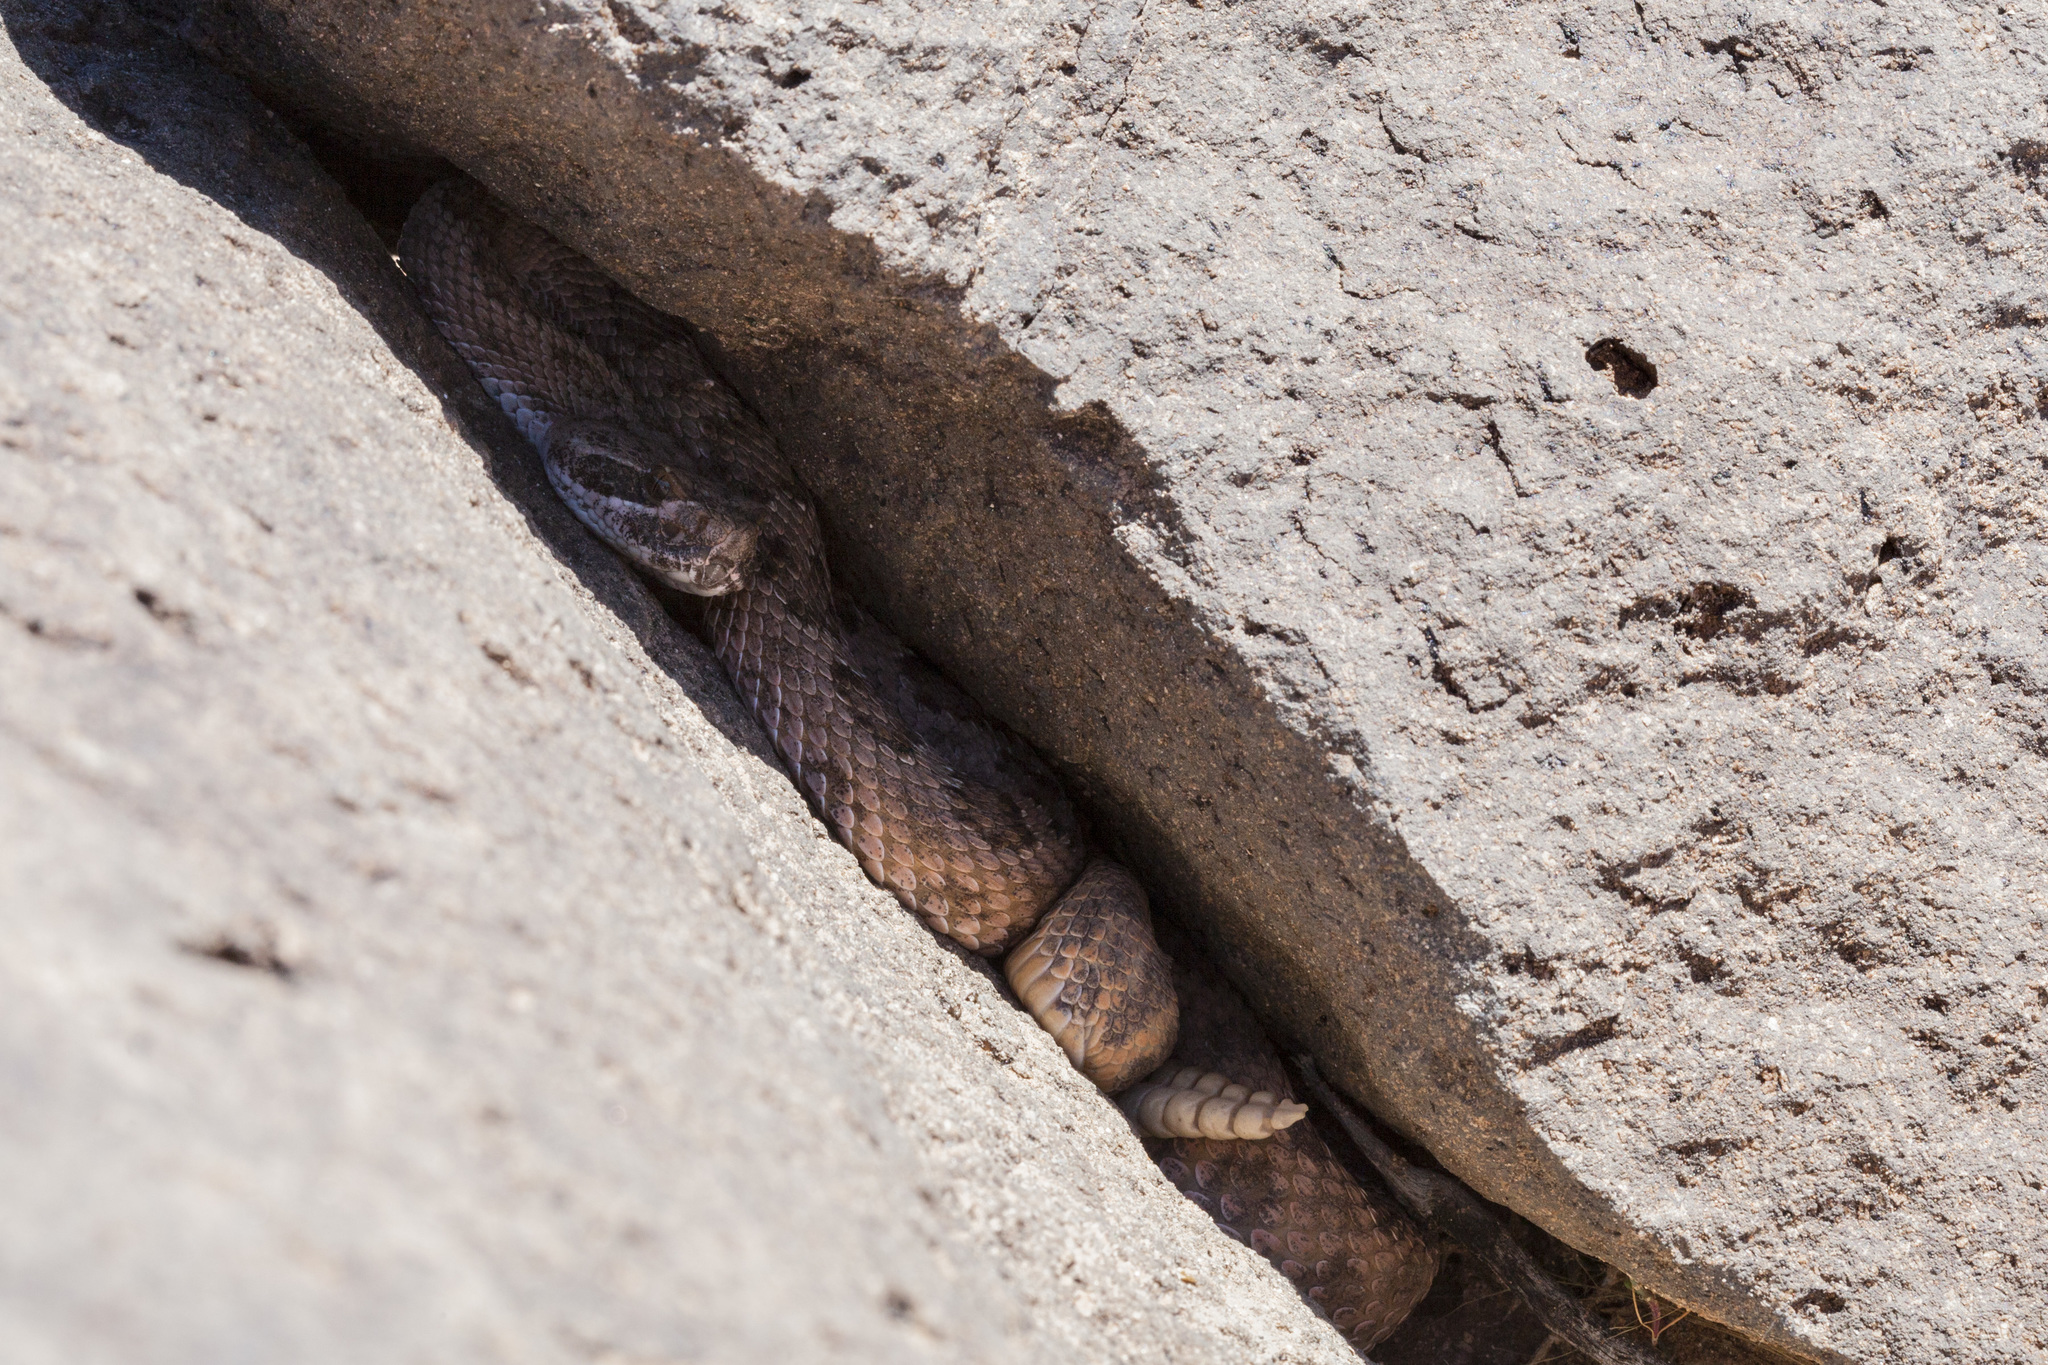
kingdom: Animalia
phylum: Chordata
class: Squamata
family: Viperidae
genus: Crotalus
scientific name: Crotalus viridis
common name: Prairie rattlesnake
